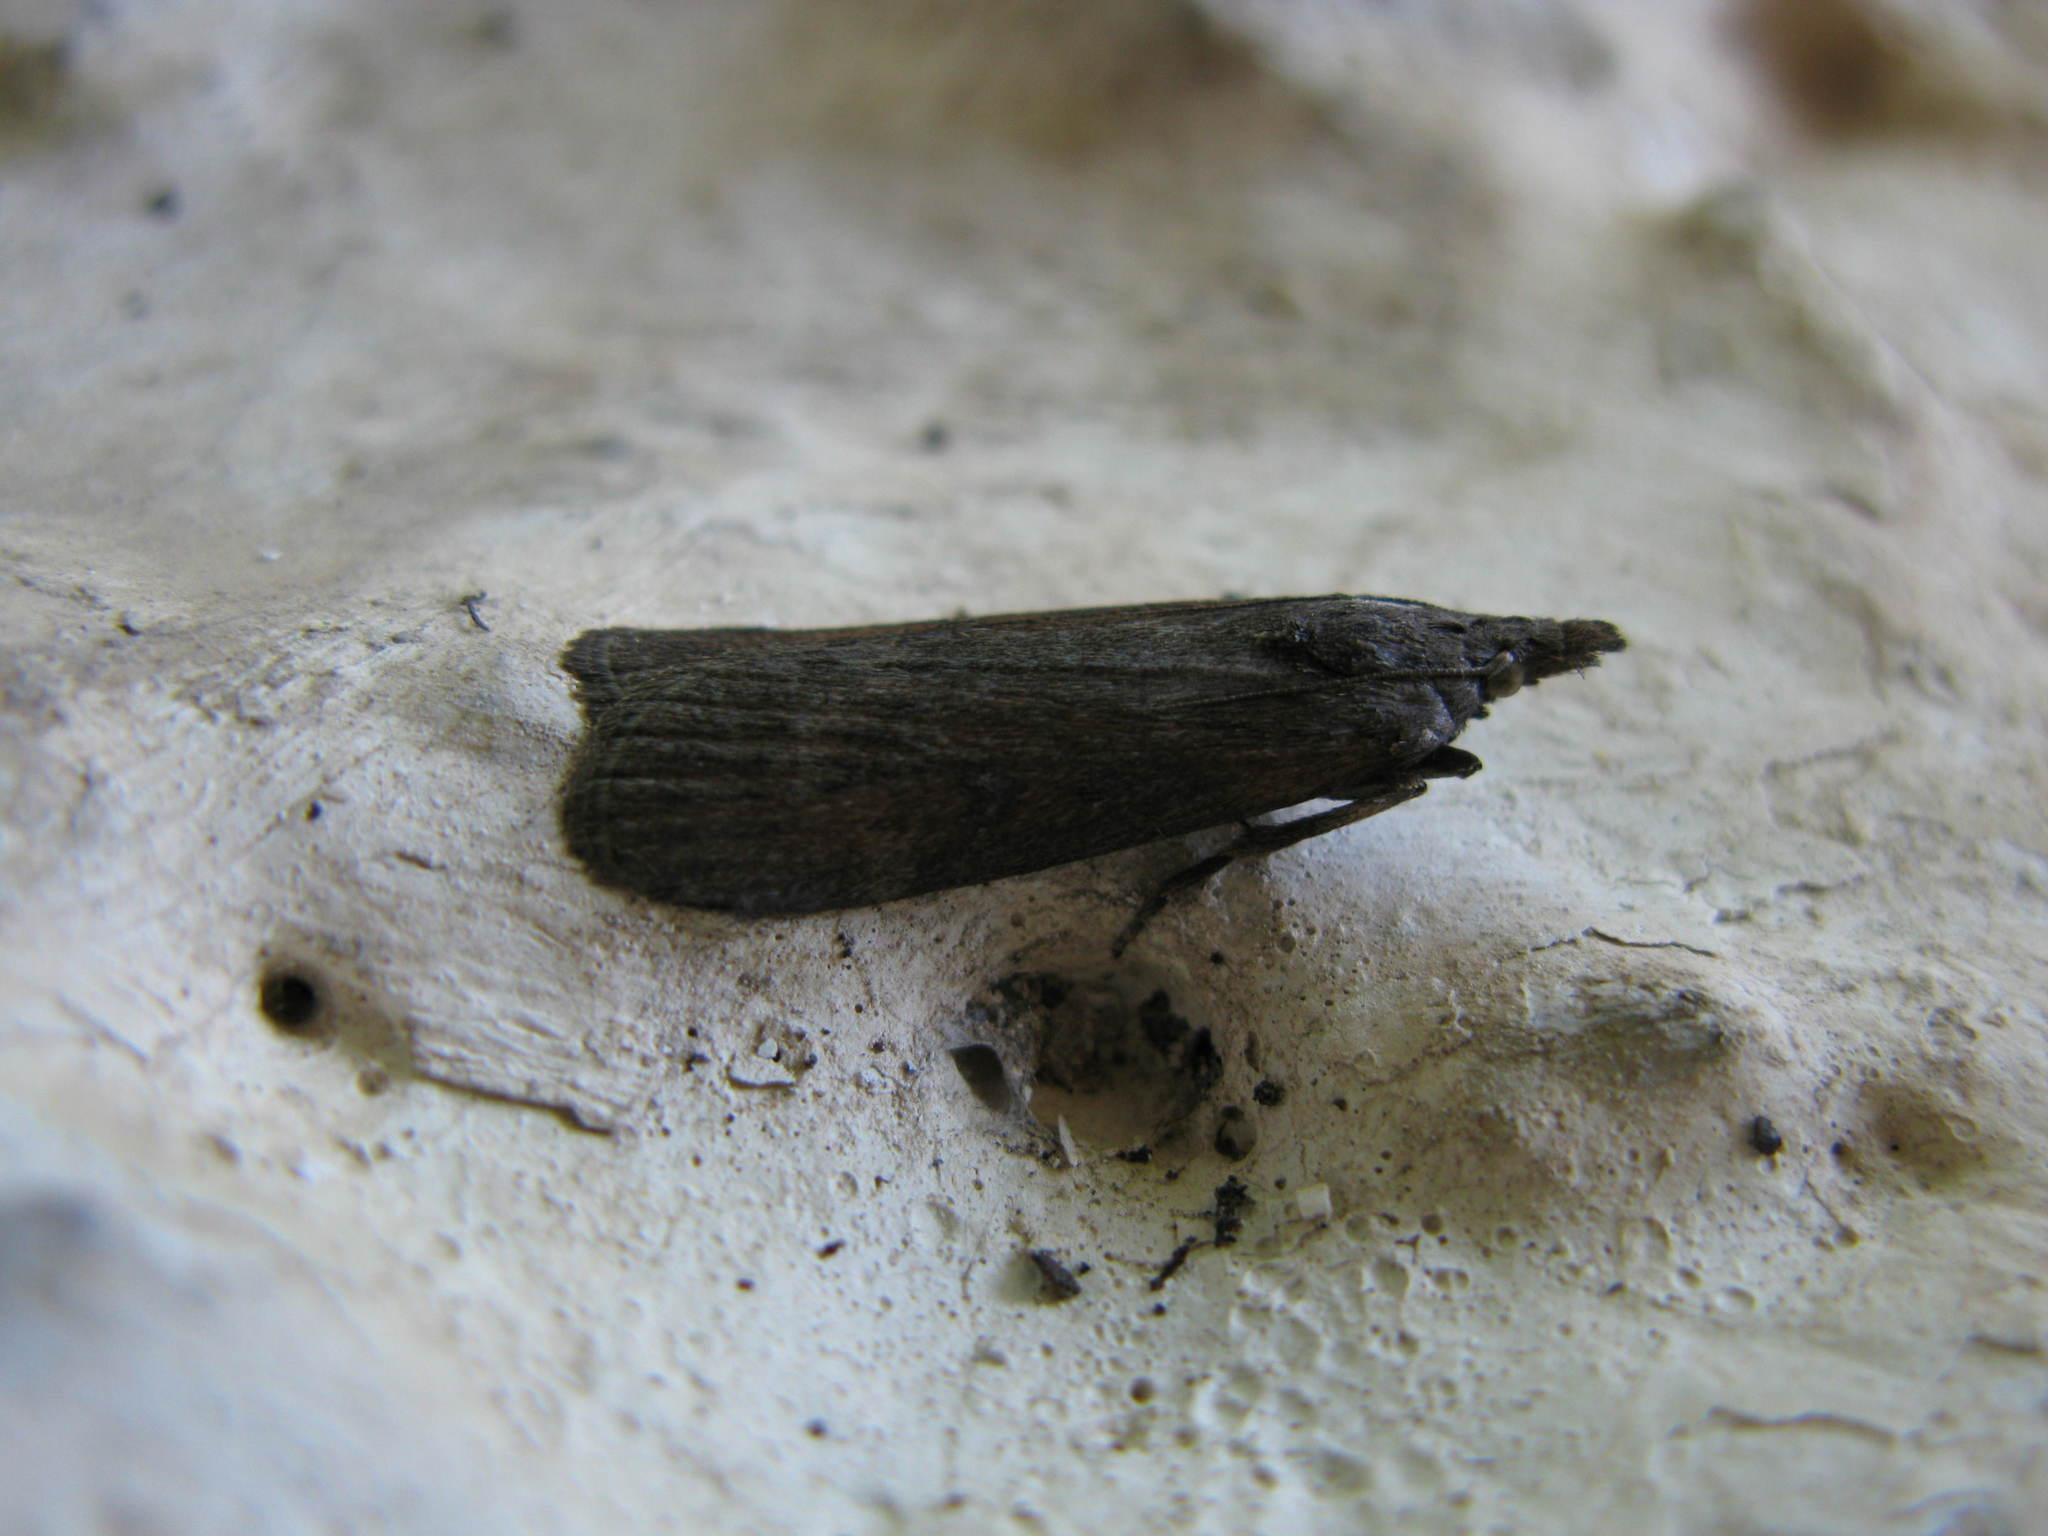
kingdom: Animalia
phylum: Arthropoda
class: Insecta
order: Lepidoptera
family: Pyralidae
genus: Lamoria
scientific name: Lamoria anella
